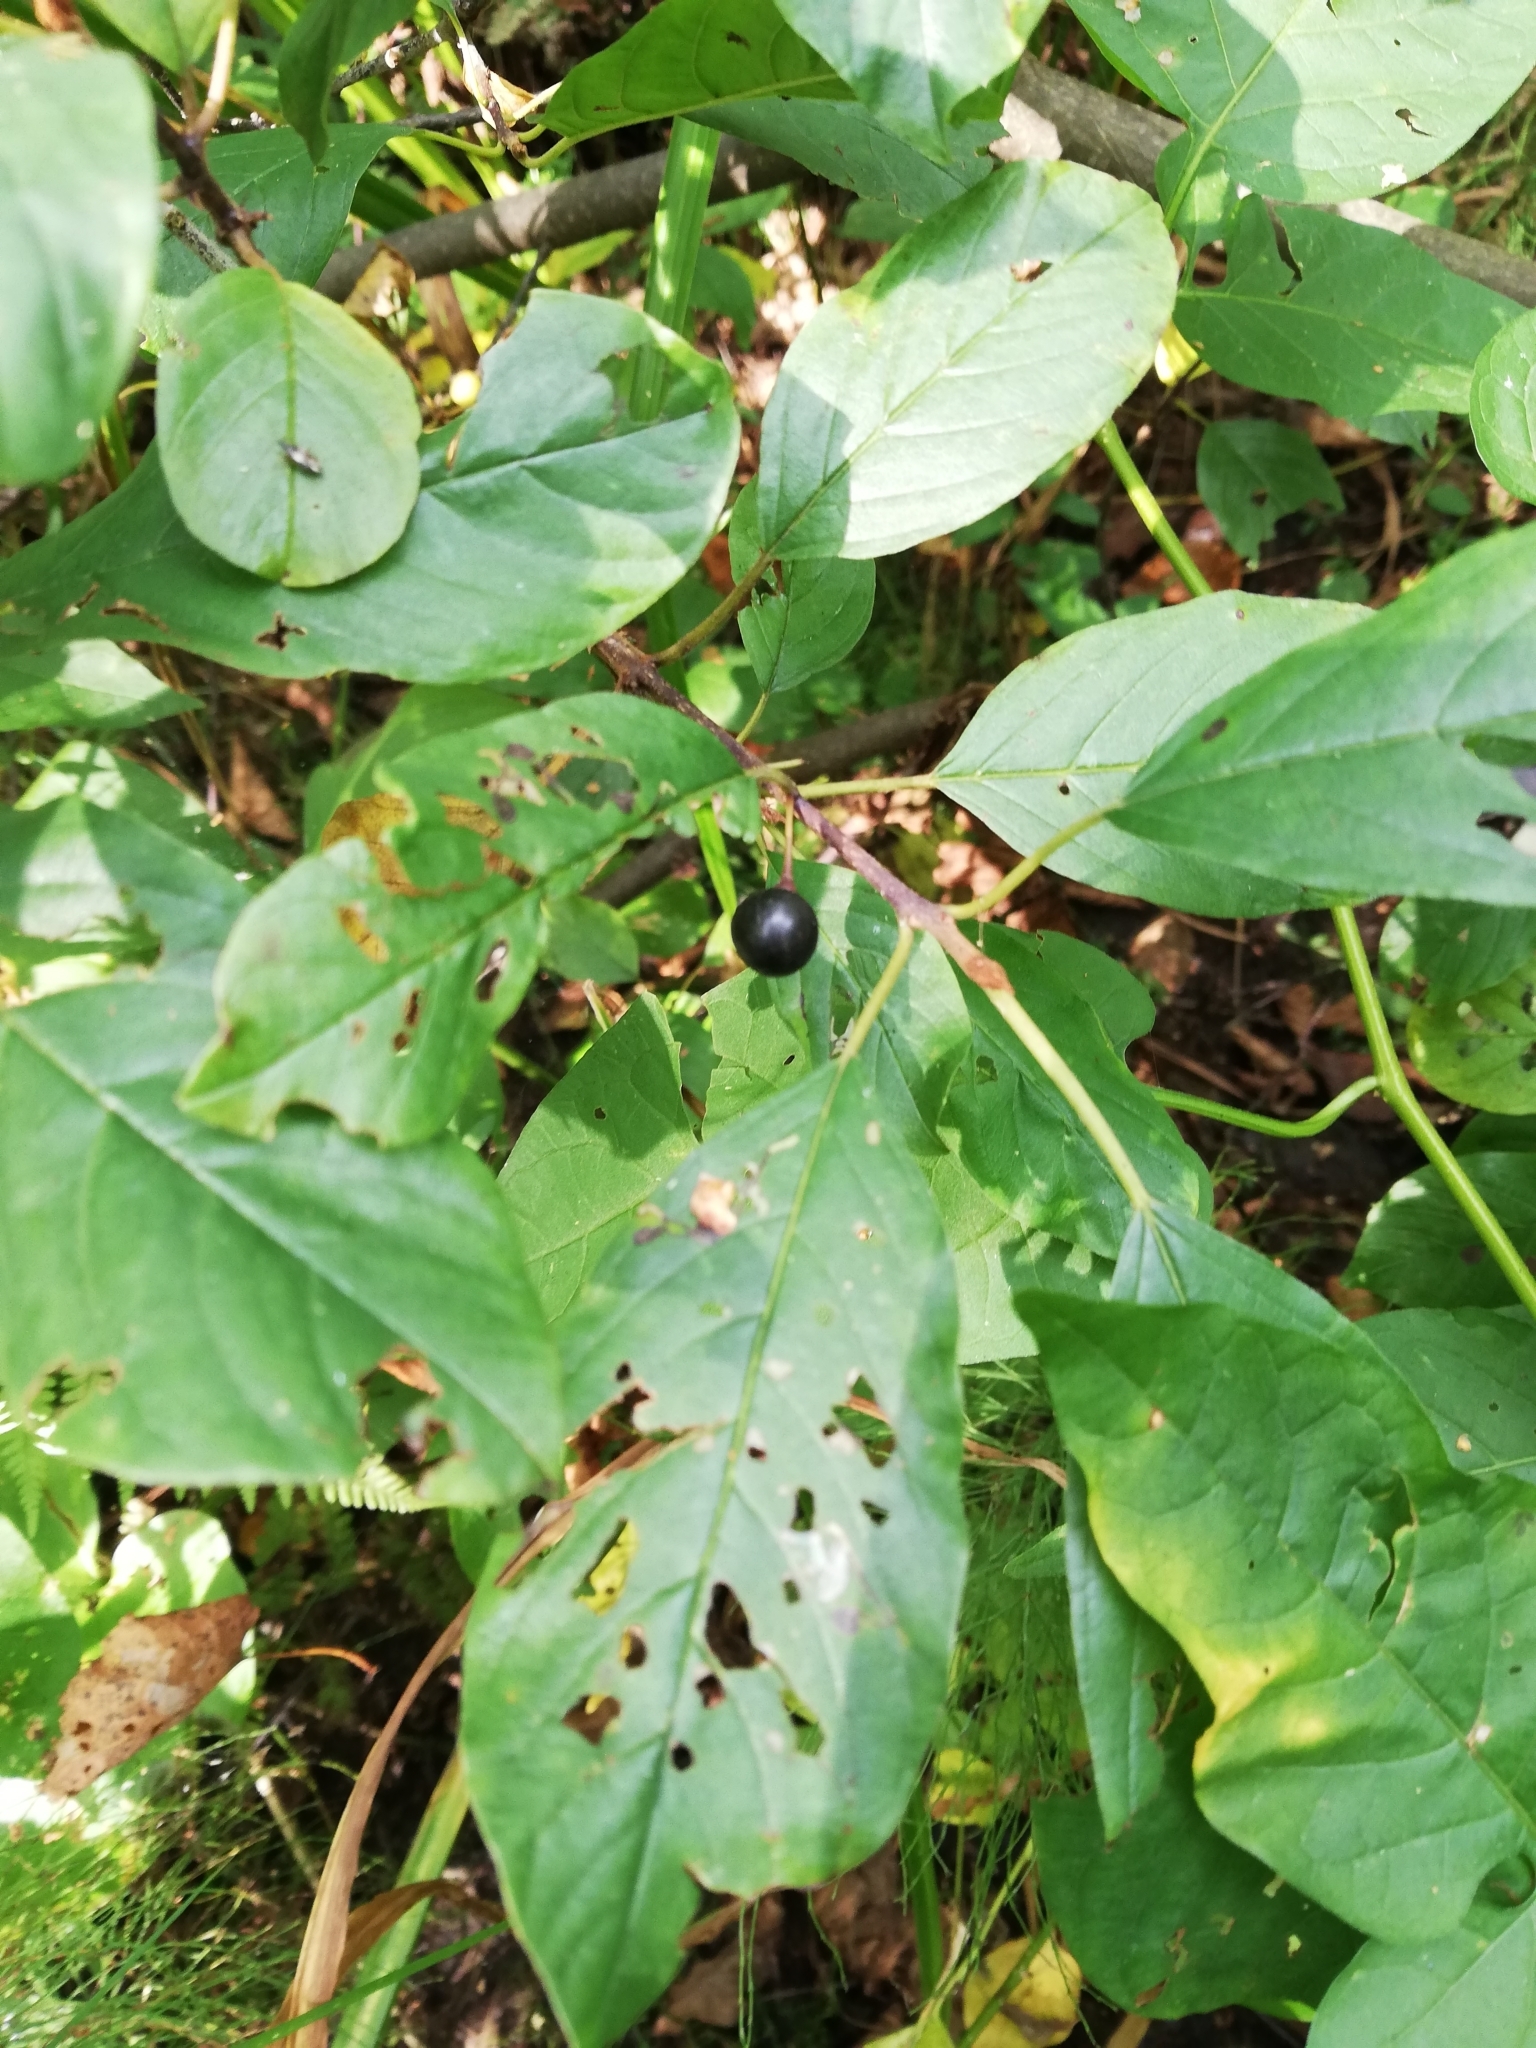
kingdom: Plantae
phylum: Tracheophyta
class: Magnoliopsida
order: Rosales
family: Rhamnaceae
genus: Frangula
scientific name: Frangula alnus
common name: Alder buckthorn
